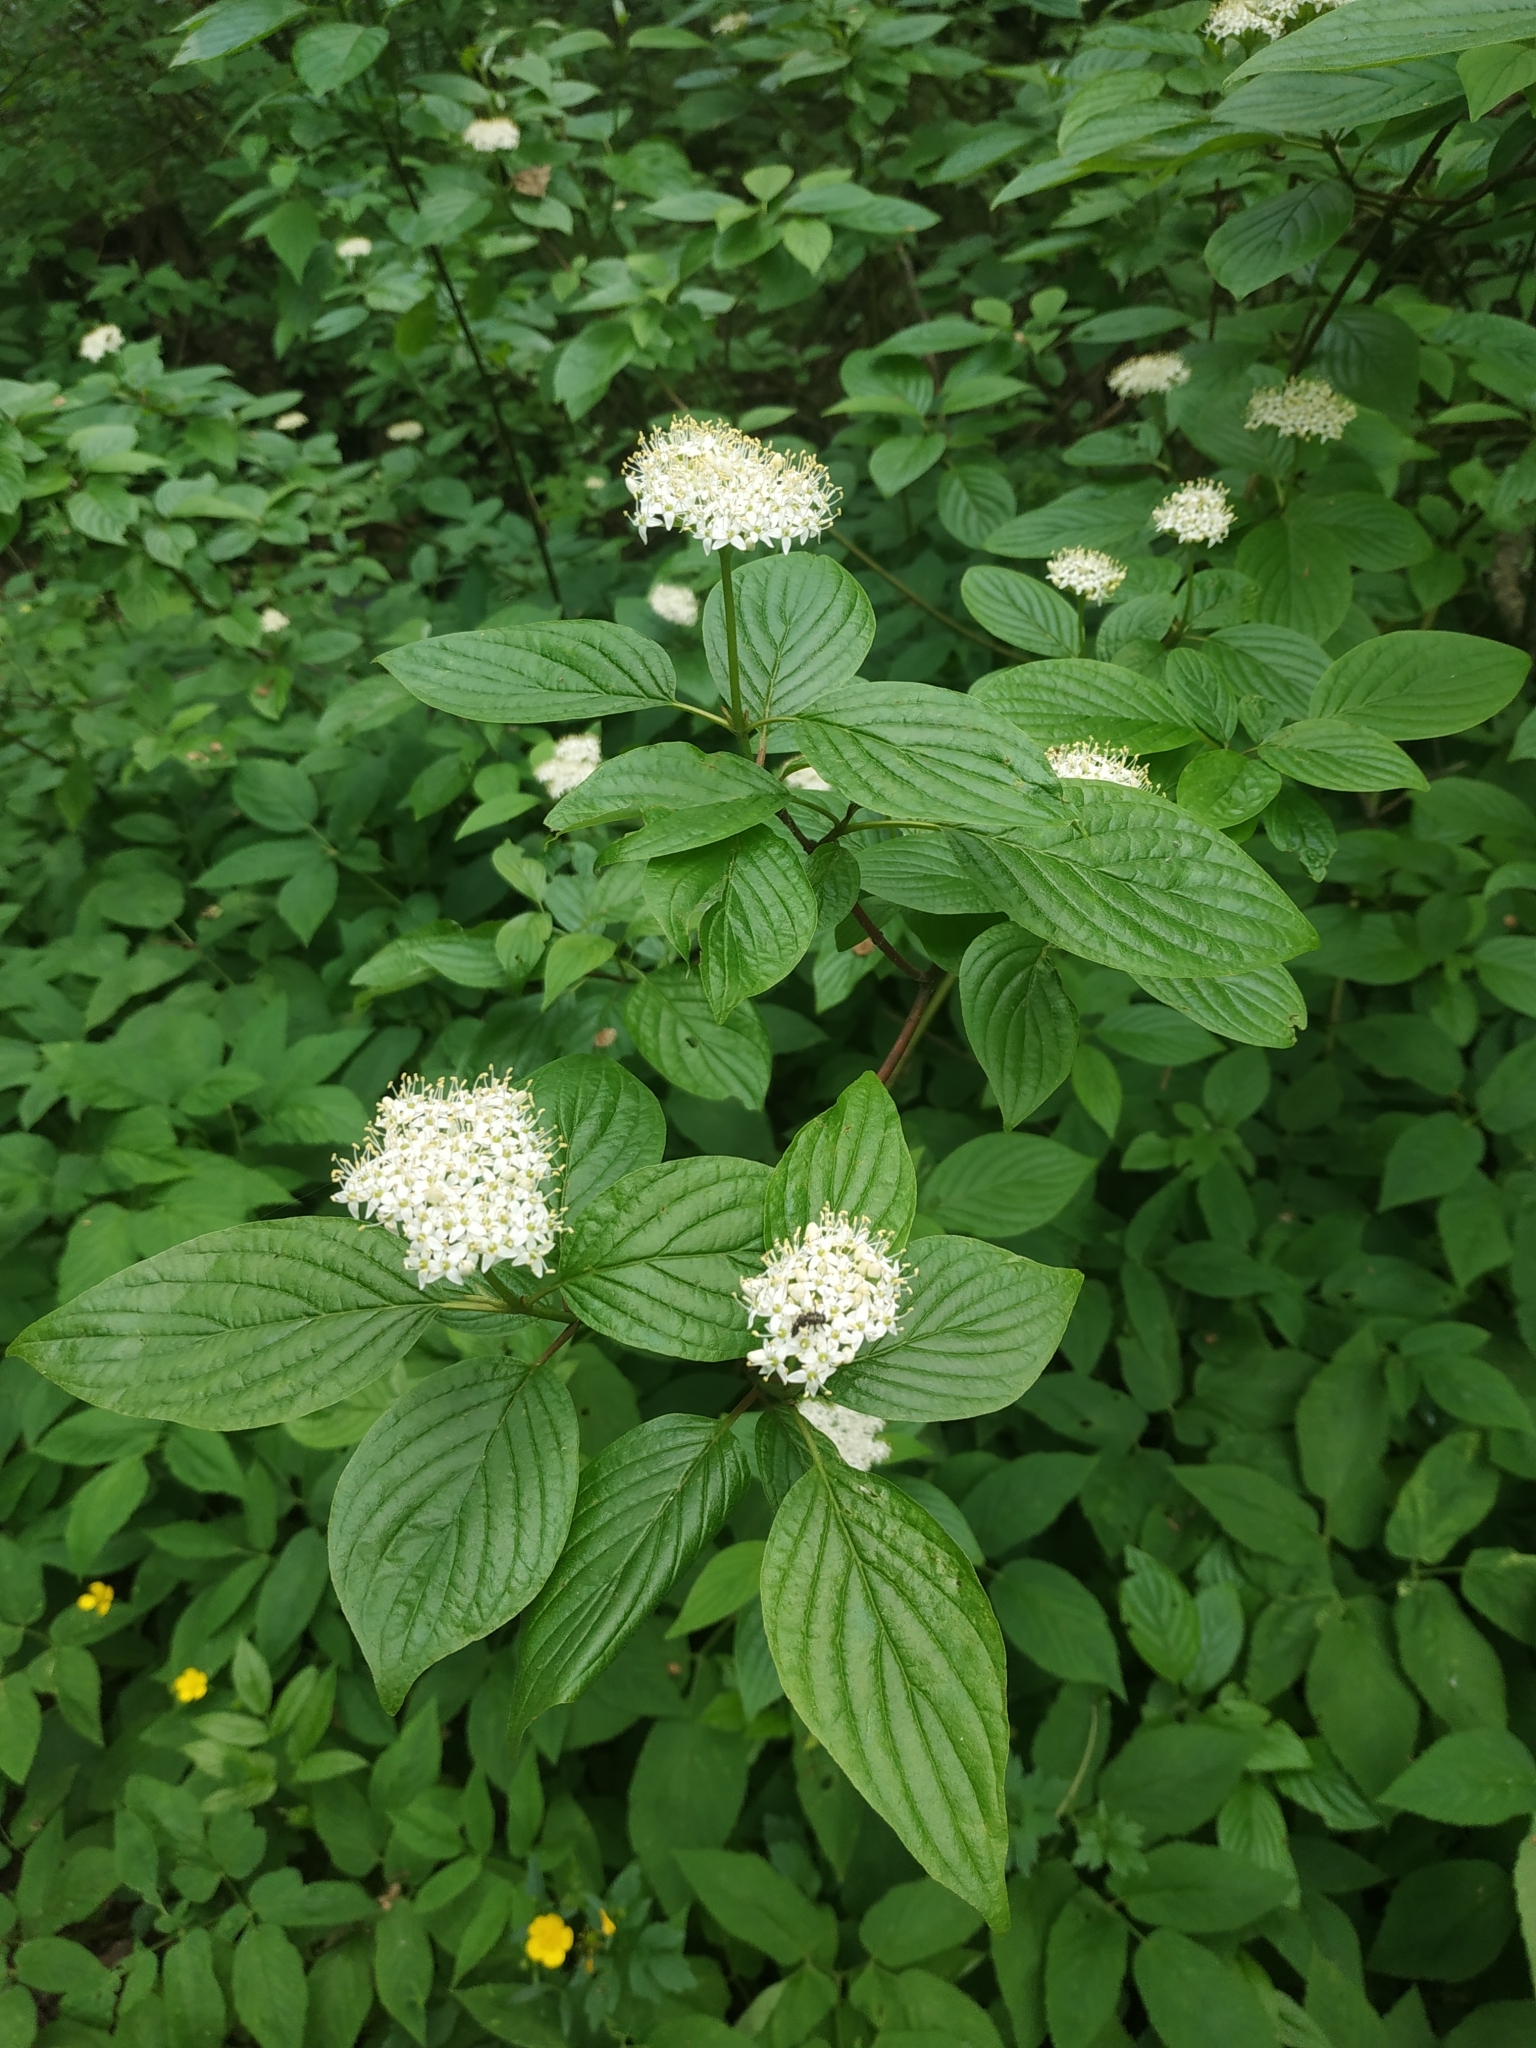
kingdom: Plantae
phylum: Tracheophyta
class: Magnoliopsida
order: Cornales
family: Cornaceae
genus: Cornus
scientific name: Cornus sericea
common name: Red-osier dogwood
